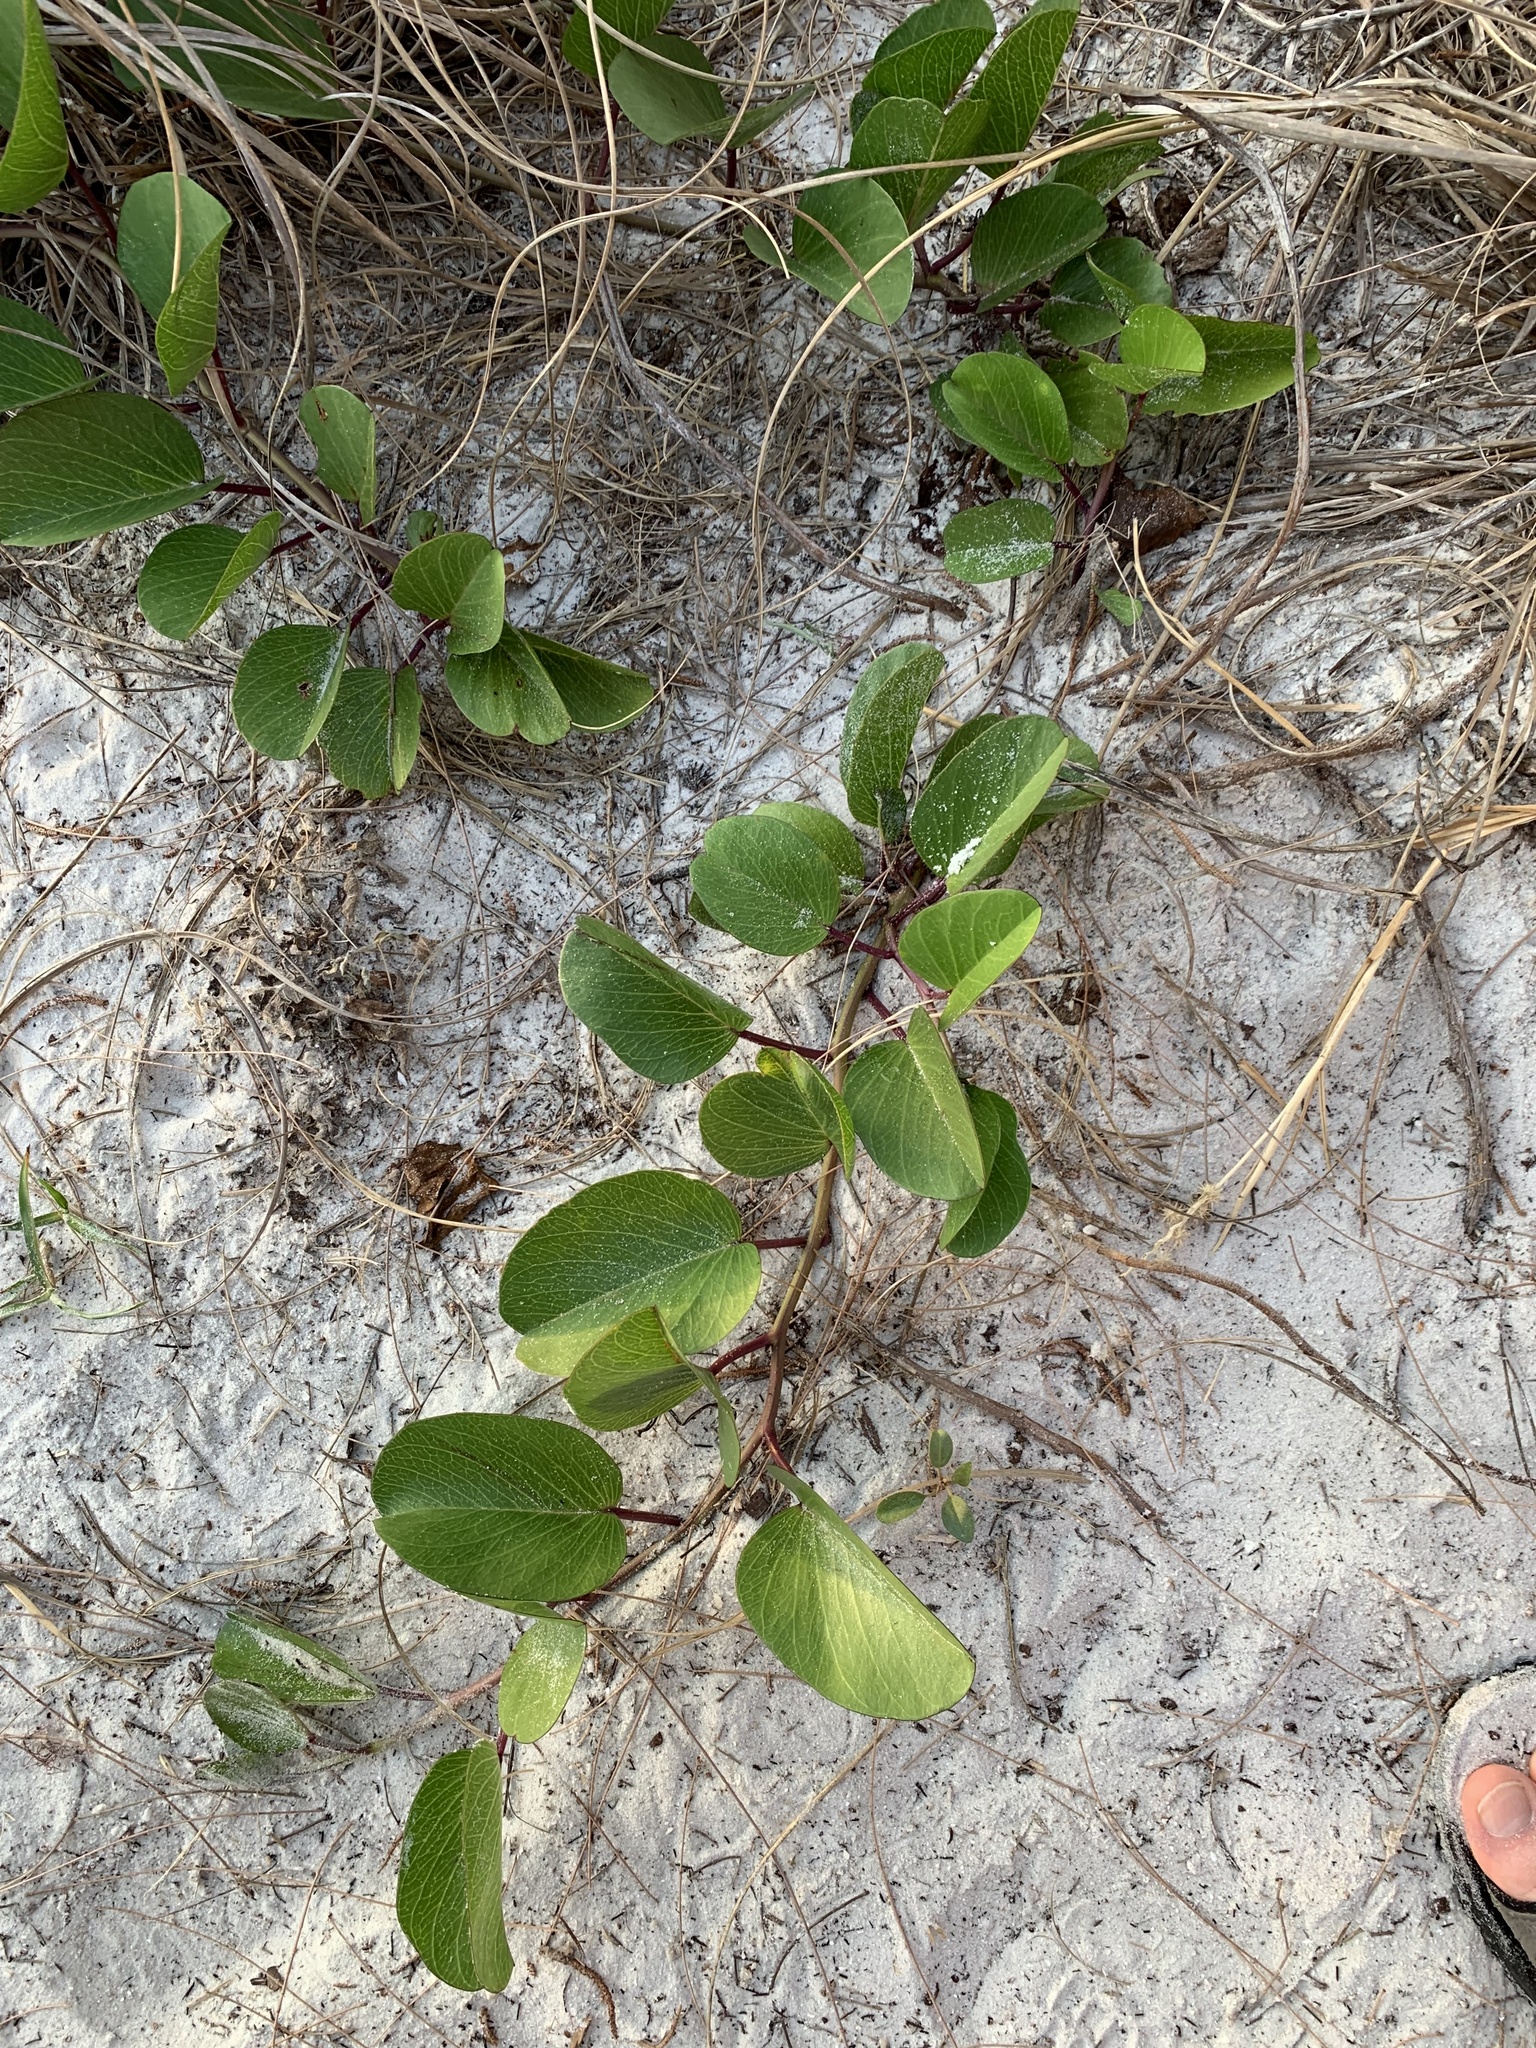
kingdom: Plantae
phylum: Tracheophyta
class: Magnoliopsida
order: Solanales
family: Convolvulaceae
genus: Ipomoea
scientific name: Ipomoea pes-caprae
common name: Beach morning glory
